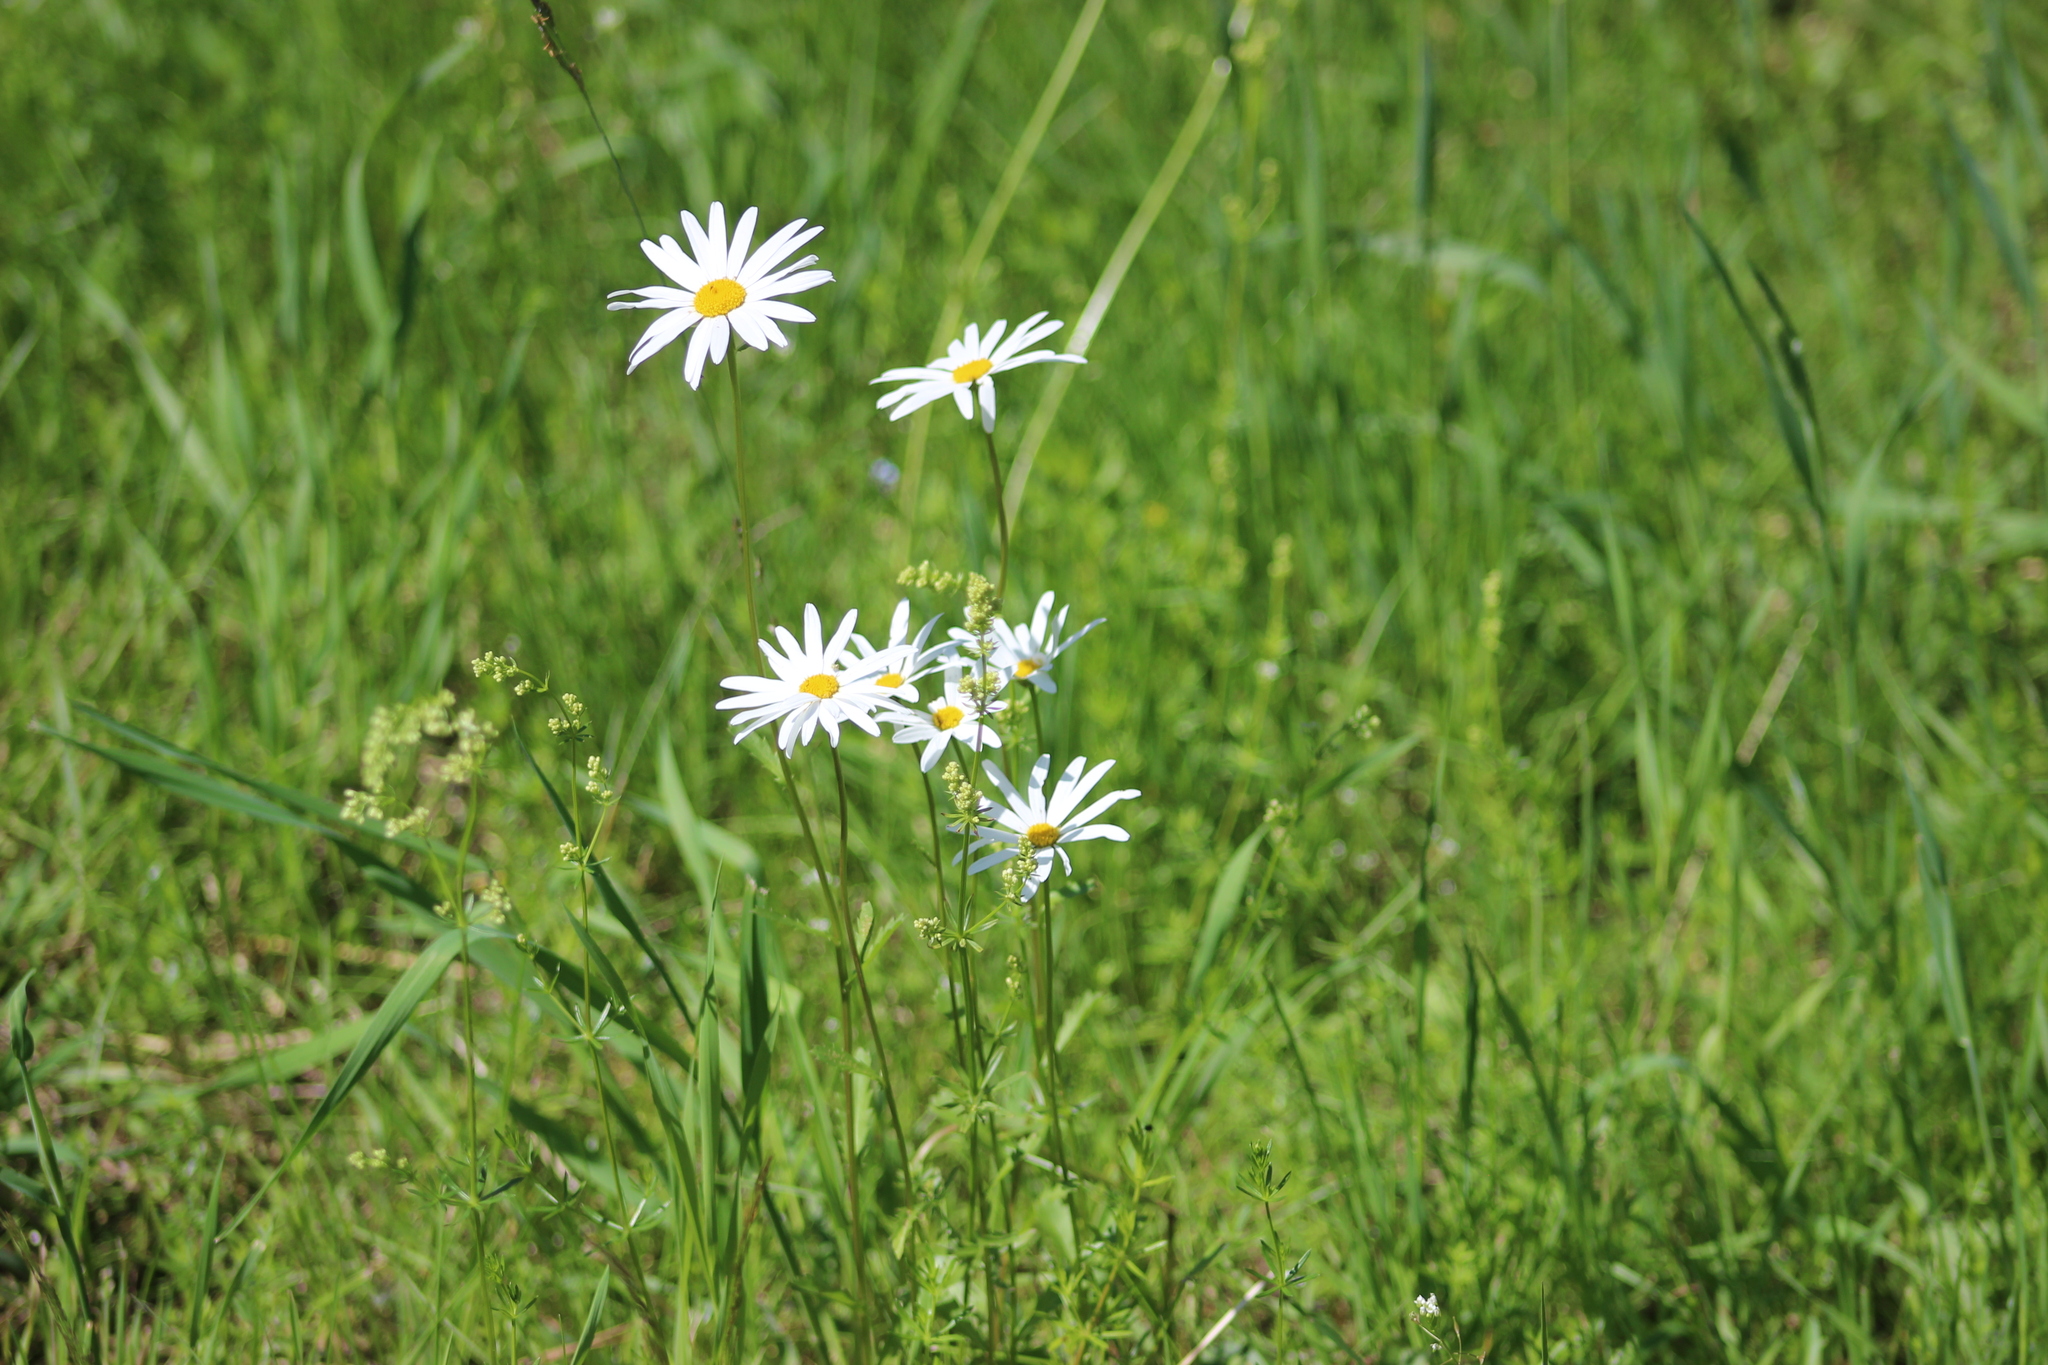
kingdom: Plantae
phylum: Tracheophyta
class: Magnoliopsida
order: Asterales
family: Asteraceae
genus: Leucanthemum
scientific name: Leucanthemum ircutianum
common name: Daisy
